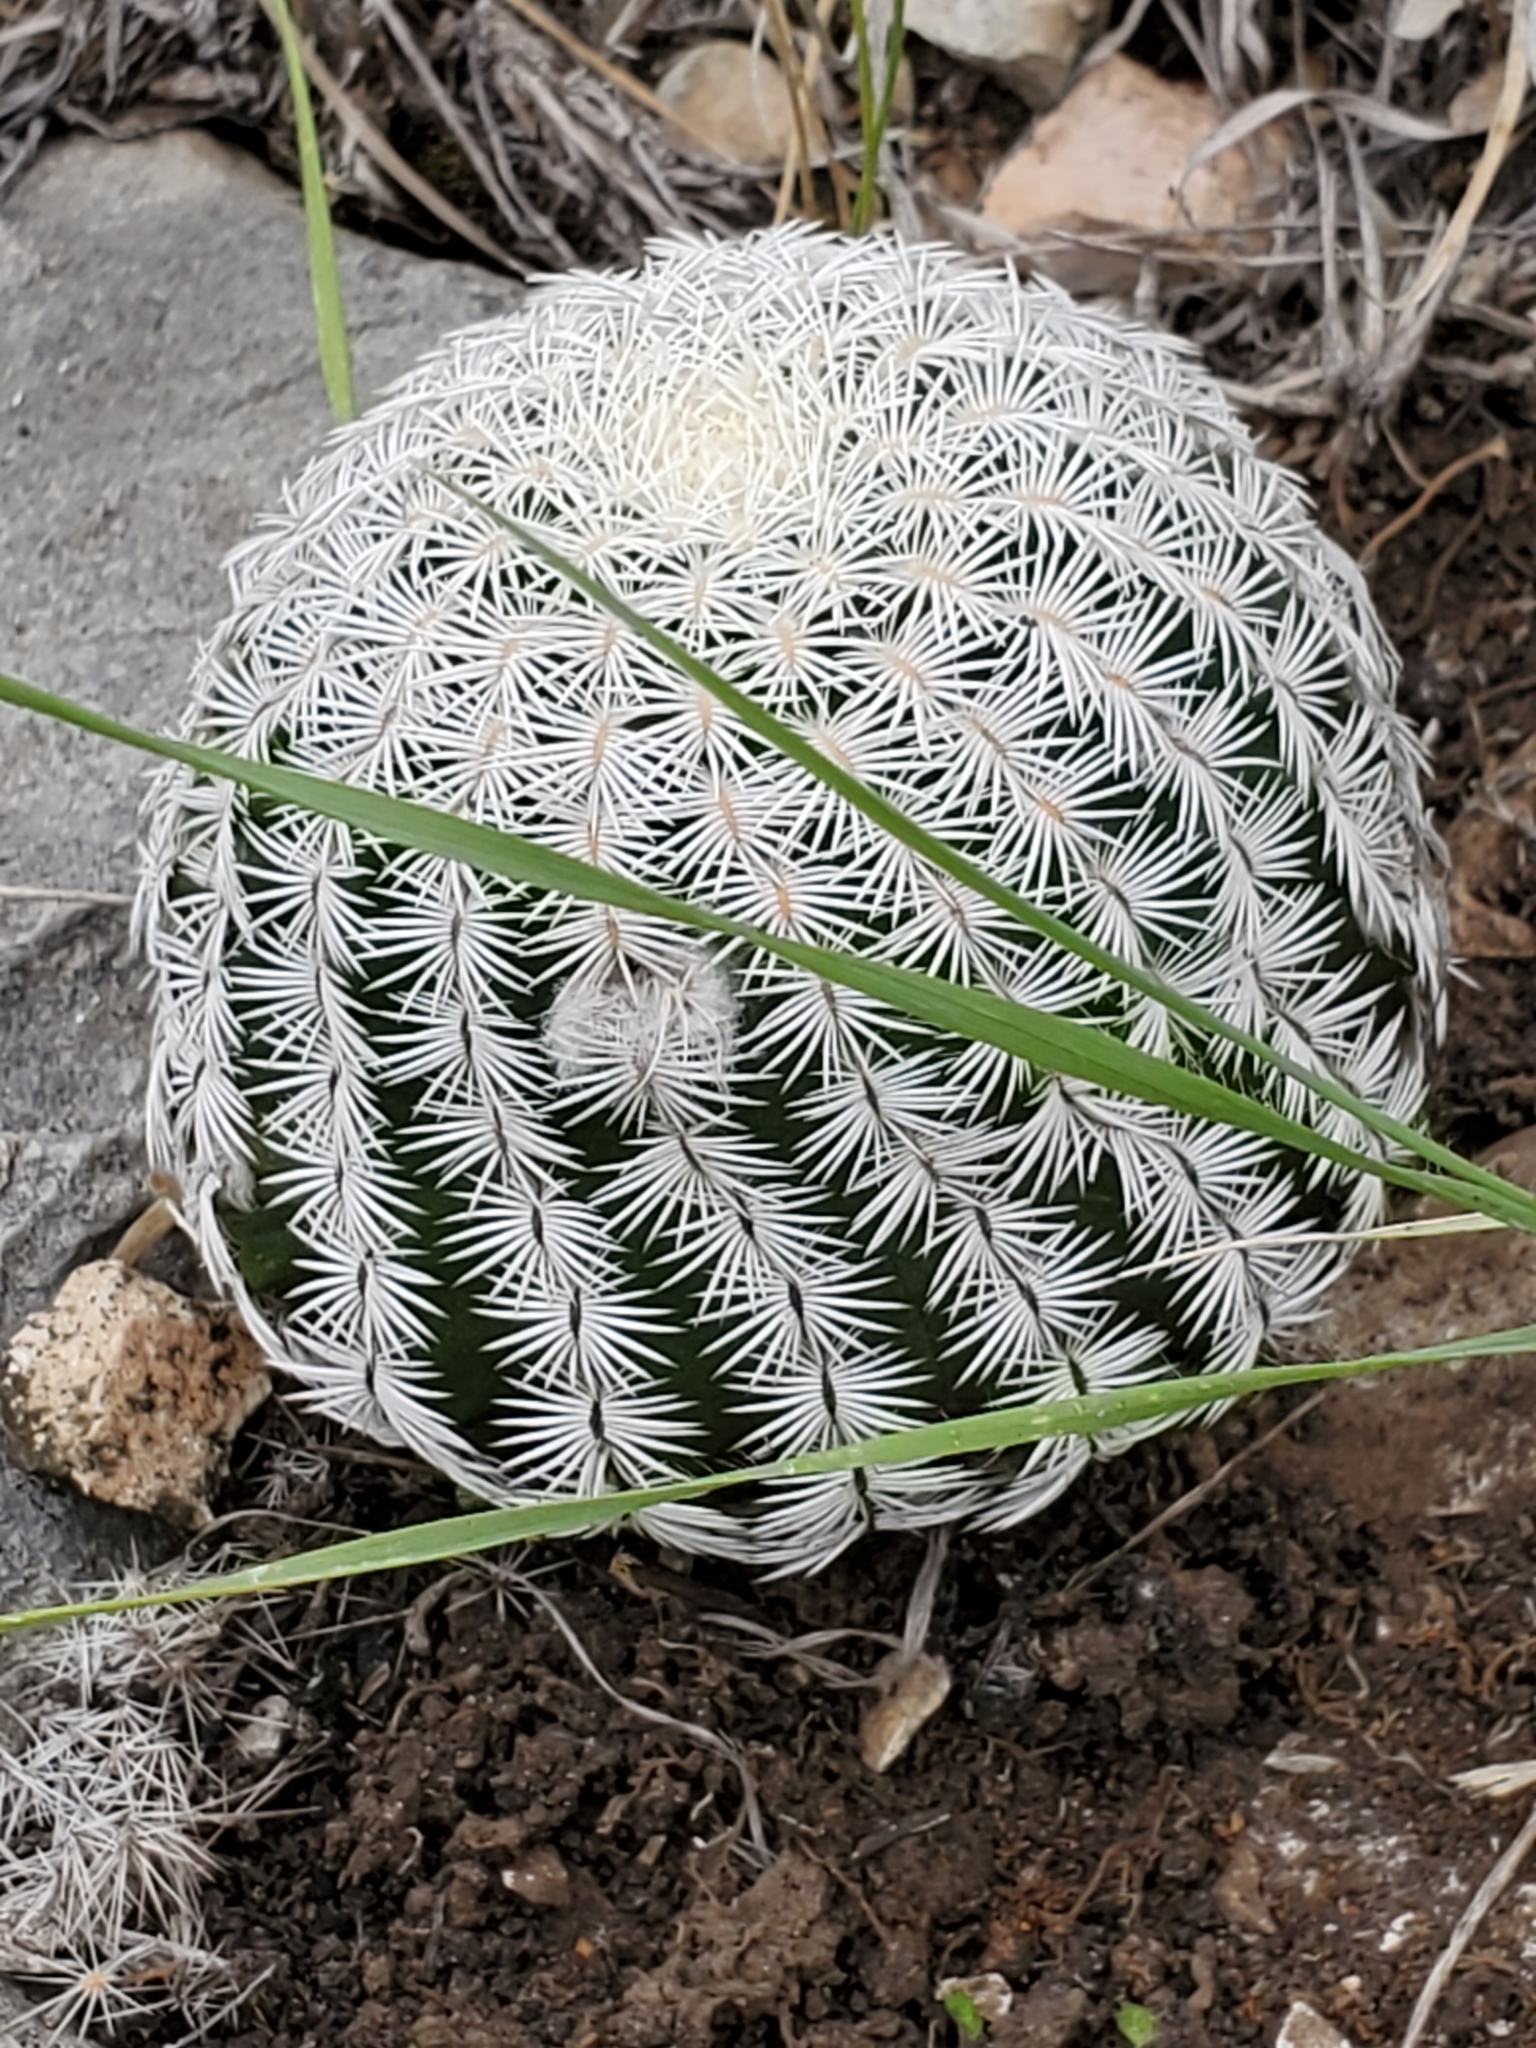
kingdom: Plantae
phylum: Tracheophyta
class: Magnoliopsida
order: Caryophyllales
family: Cactaceae
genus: Echinocereus
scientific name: Echinocereus reichenbachii
